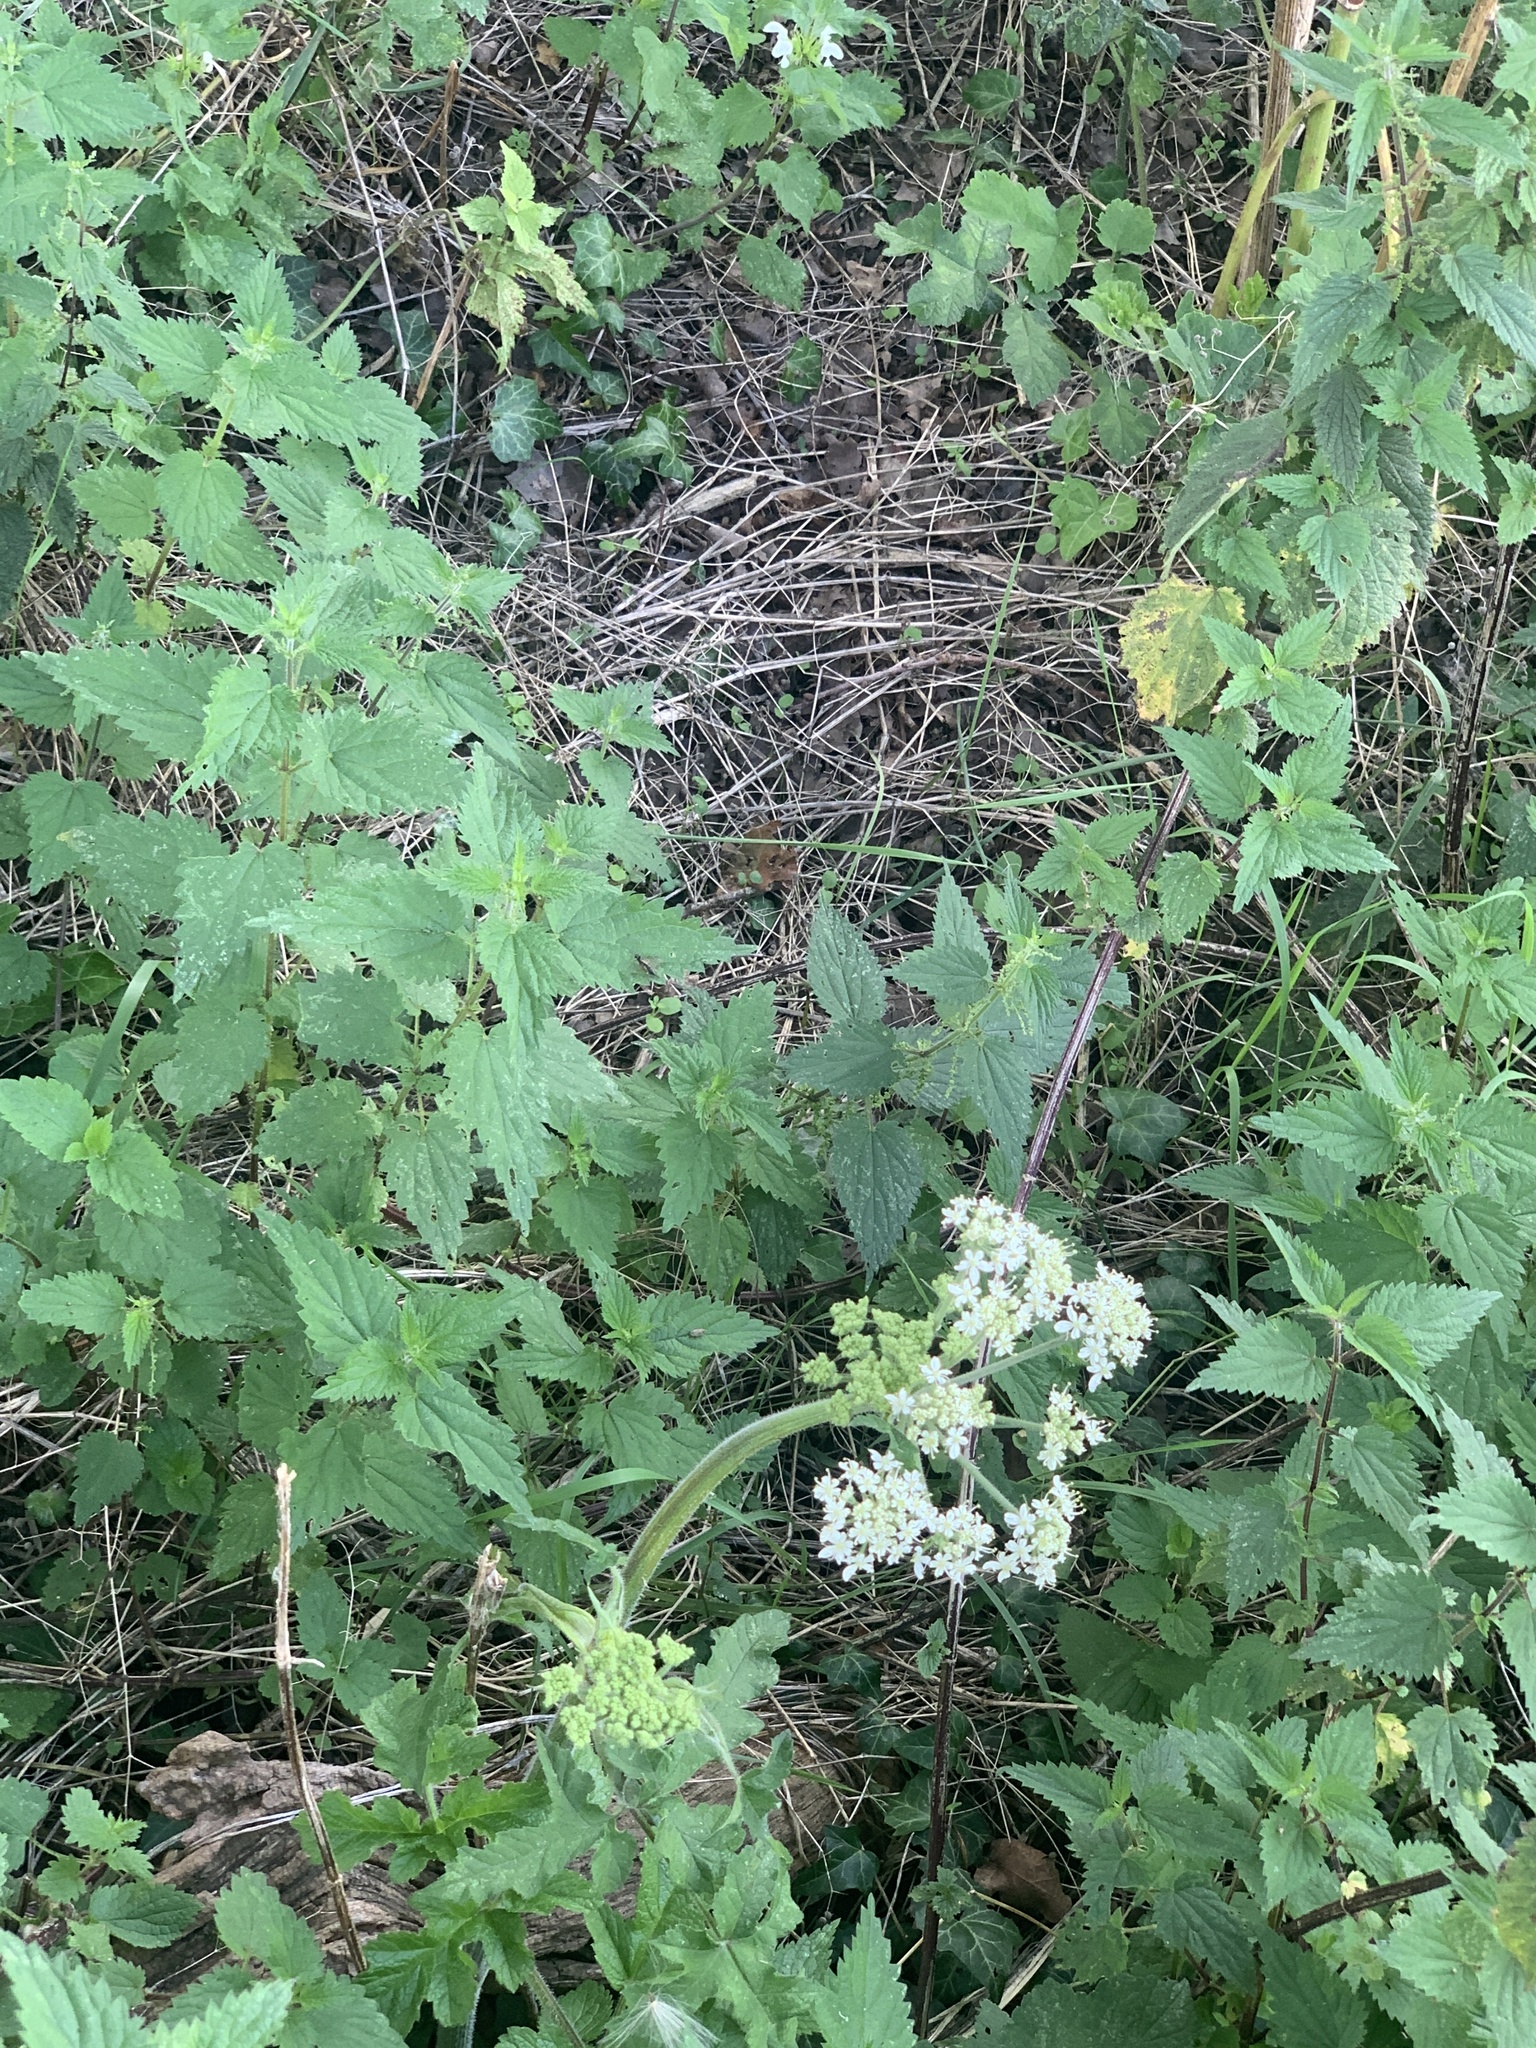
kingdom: Plantae
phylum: Tracheophyta
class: Magnoliopsida
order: Rosales
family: Urticaceae
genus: Urtica
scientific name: Urtica dioica
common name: Common nettle
